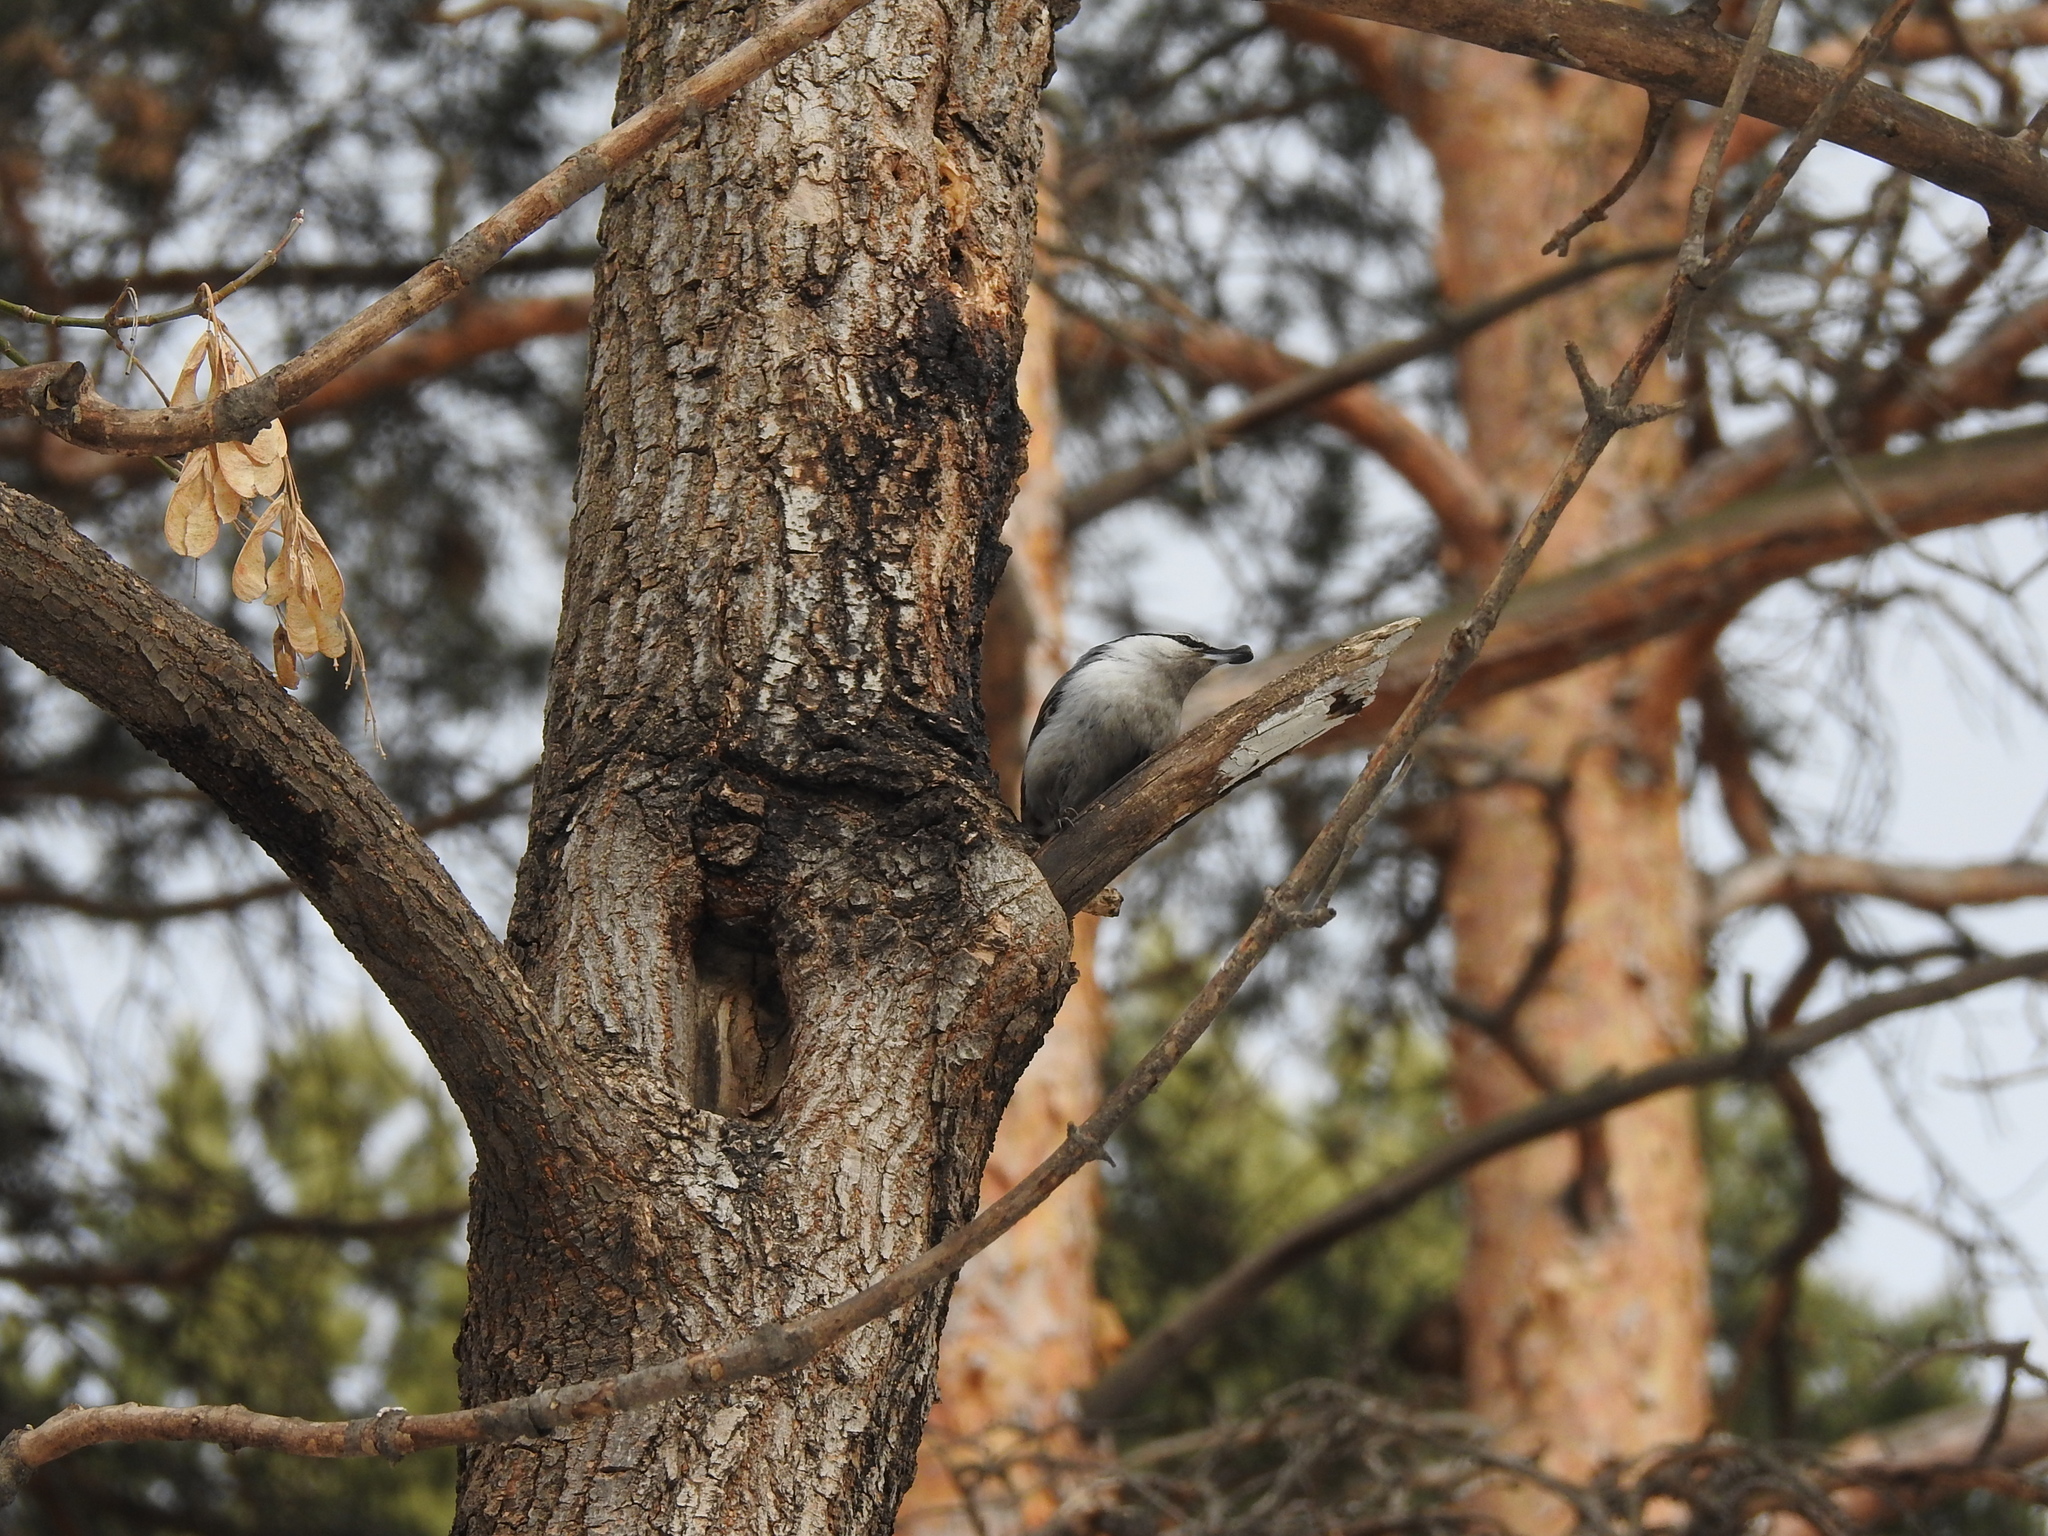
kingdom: Animalia
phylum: Chordata
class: Aves
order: Passeriformes
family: Sittidae
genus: Sitta
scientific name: Sitta europaea
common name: Eurasian nuthatch
